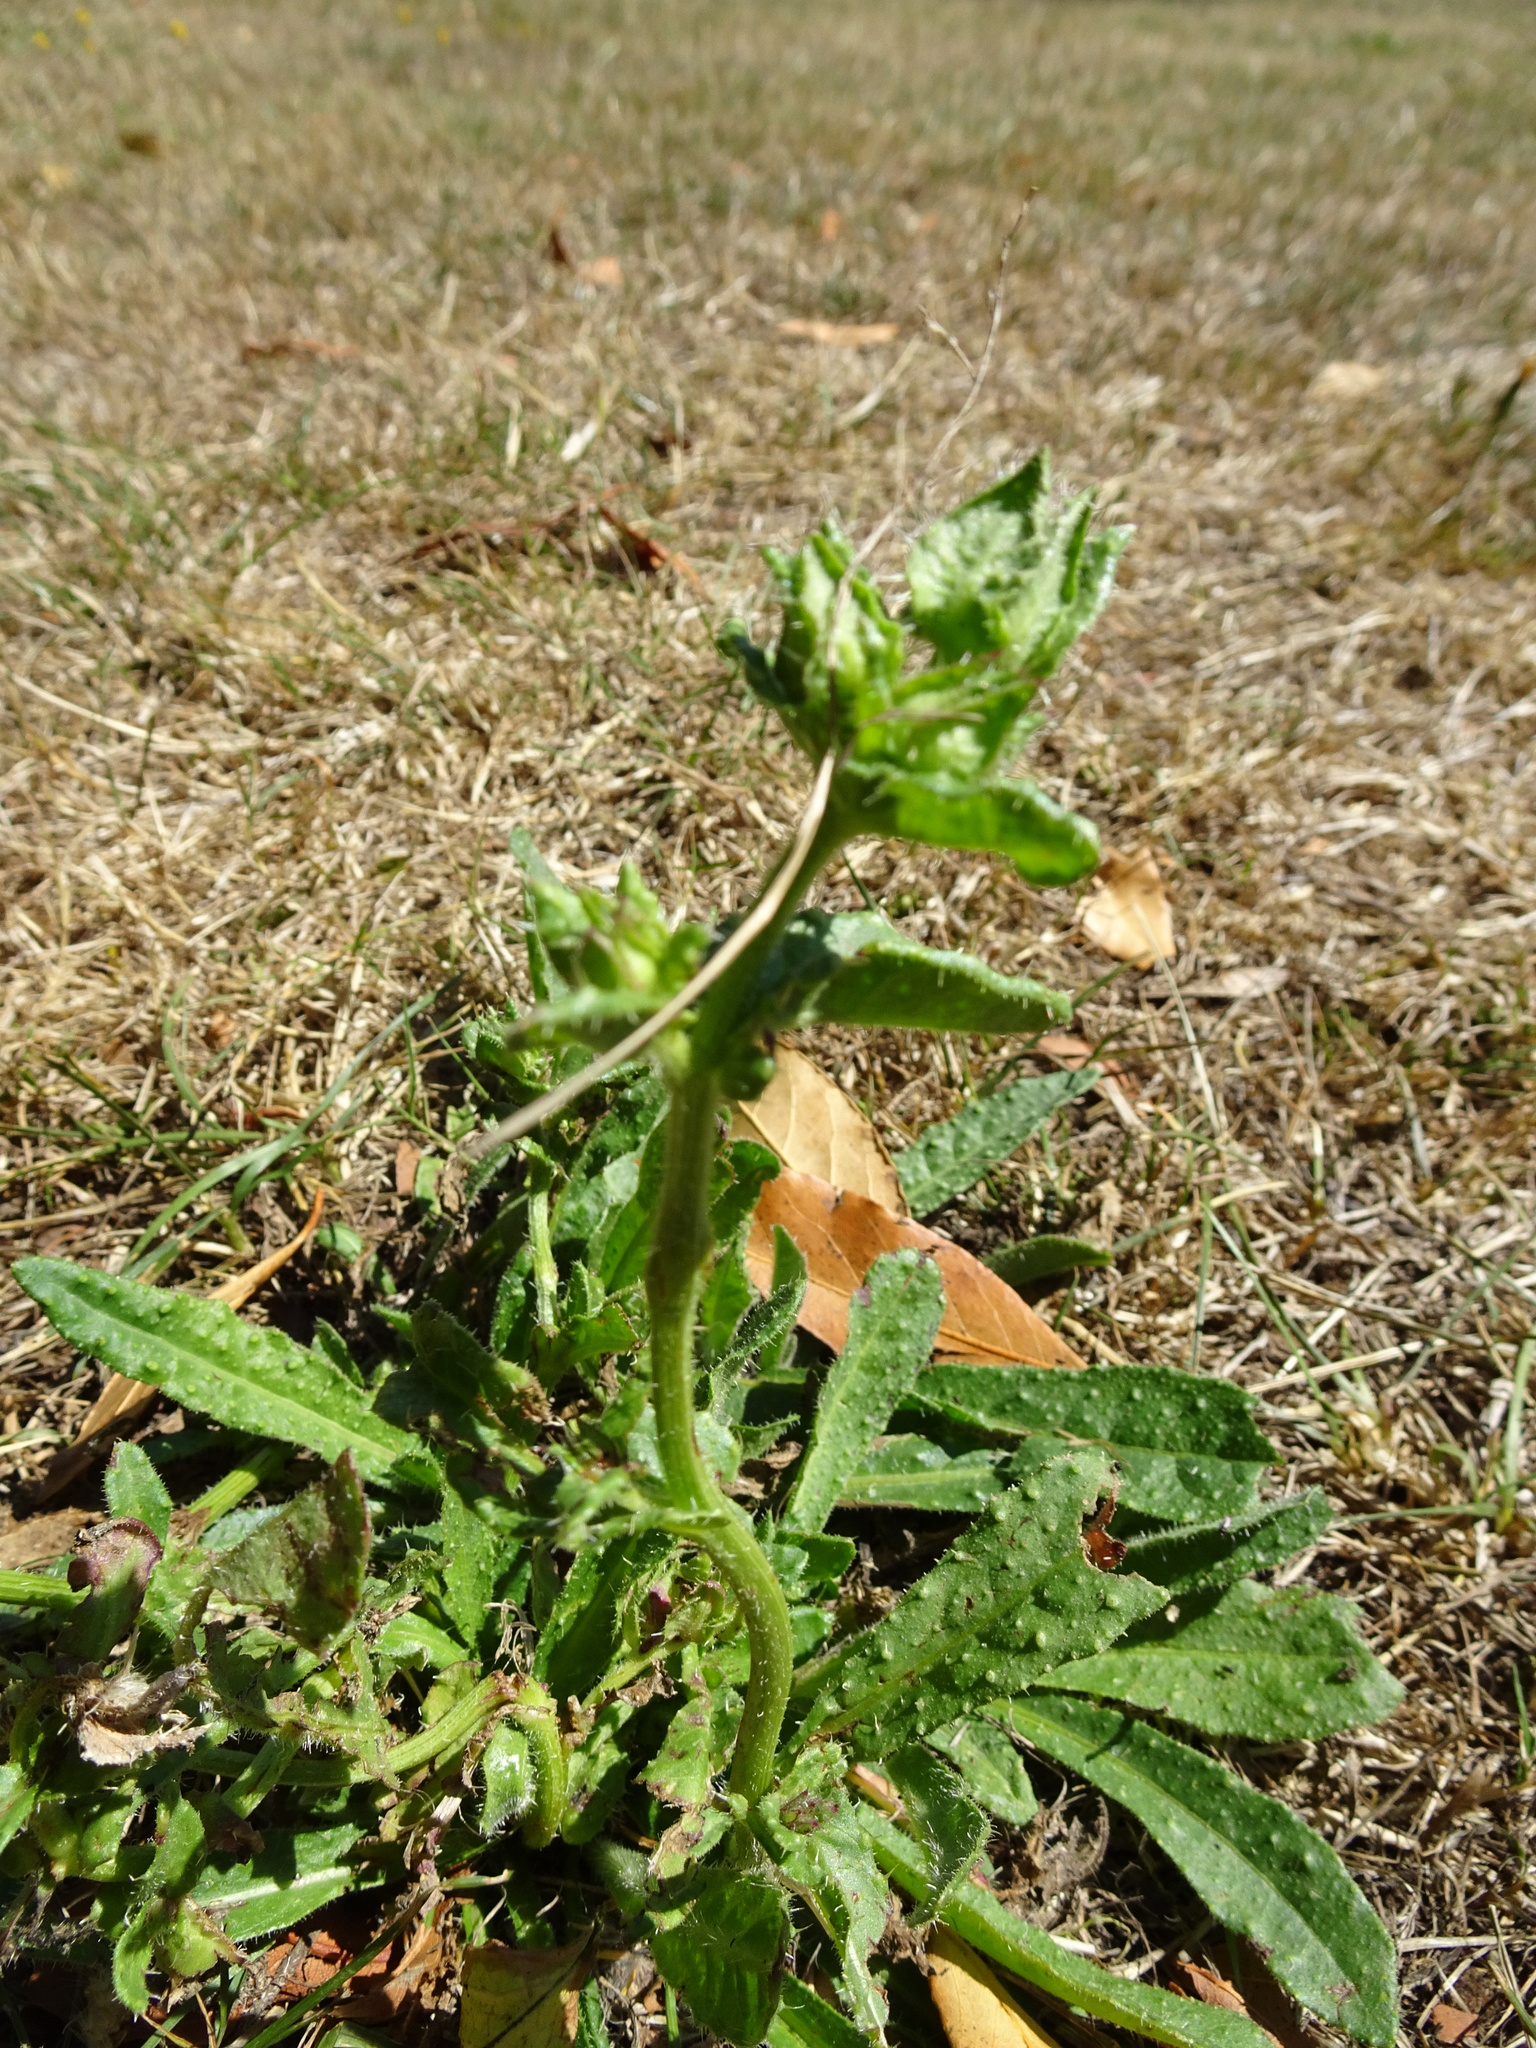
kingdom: Plantae
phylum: Tracheophyta
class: Magnoliopsida
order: Asterales
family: Asteraceae
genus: Helminthotheca
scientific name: Helminthotheca echioides
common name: Ox-tongue
